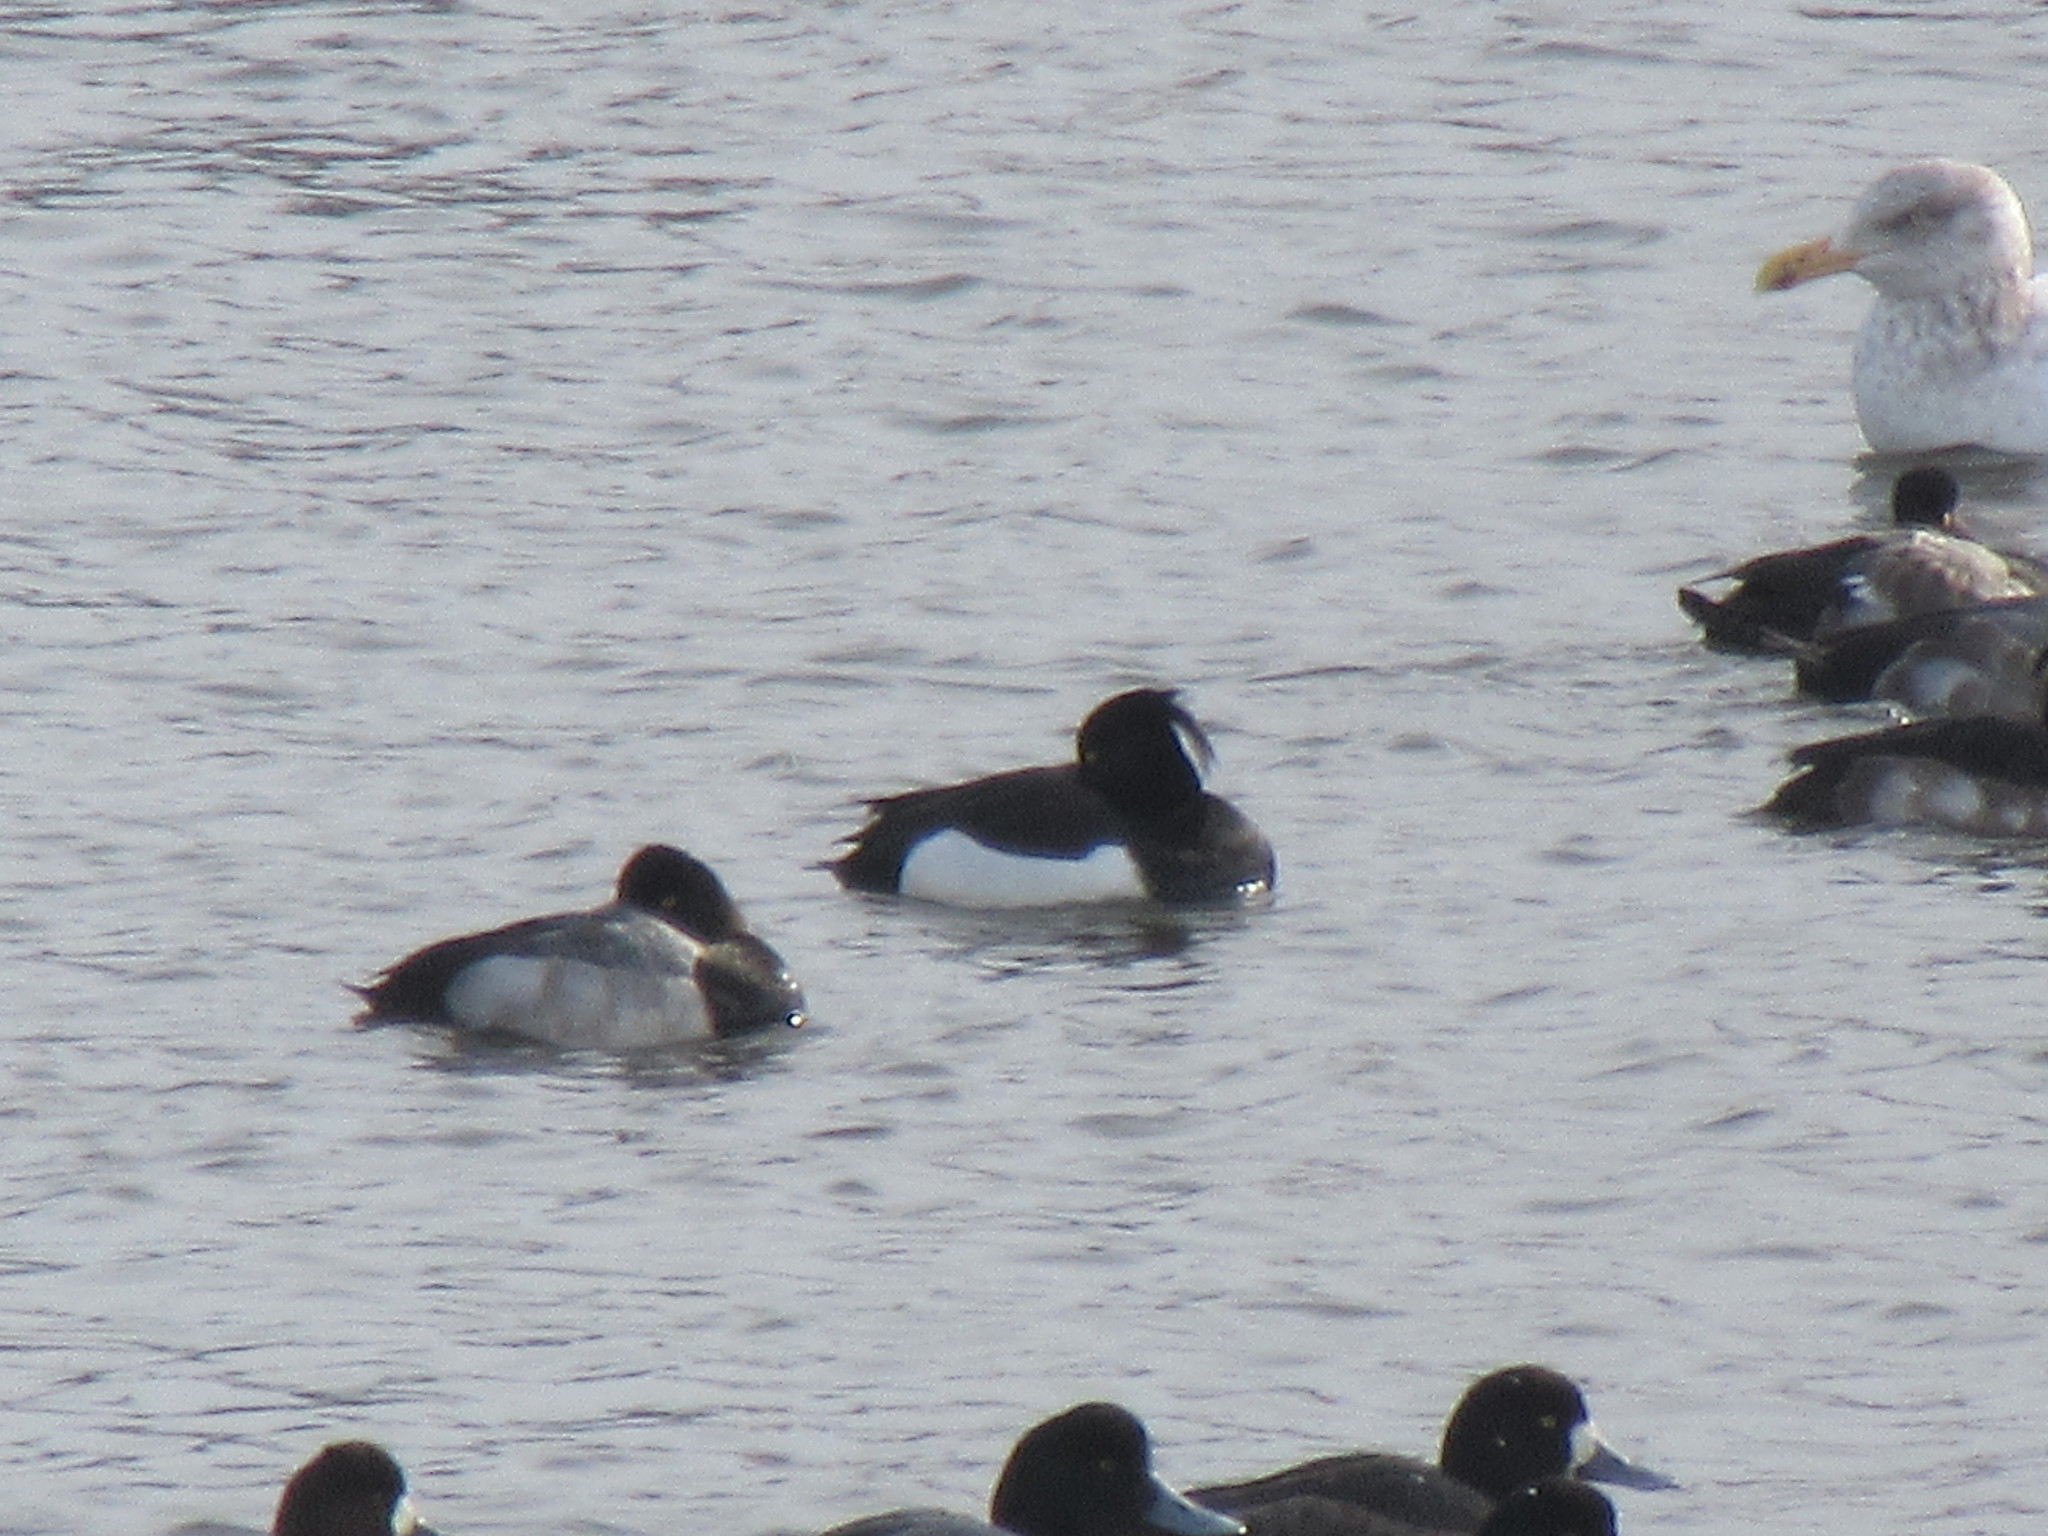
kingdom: Animalia
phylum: Chordata
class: Aves
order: Anseriformes
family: Anatidae
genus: Aythya
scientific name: Aythya fuligula
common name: Tufted duck
